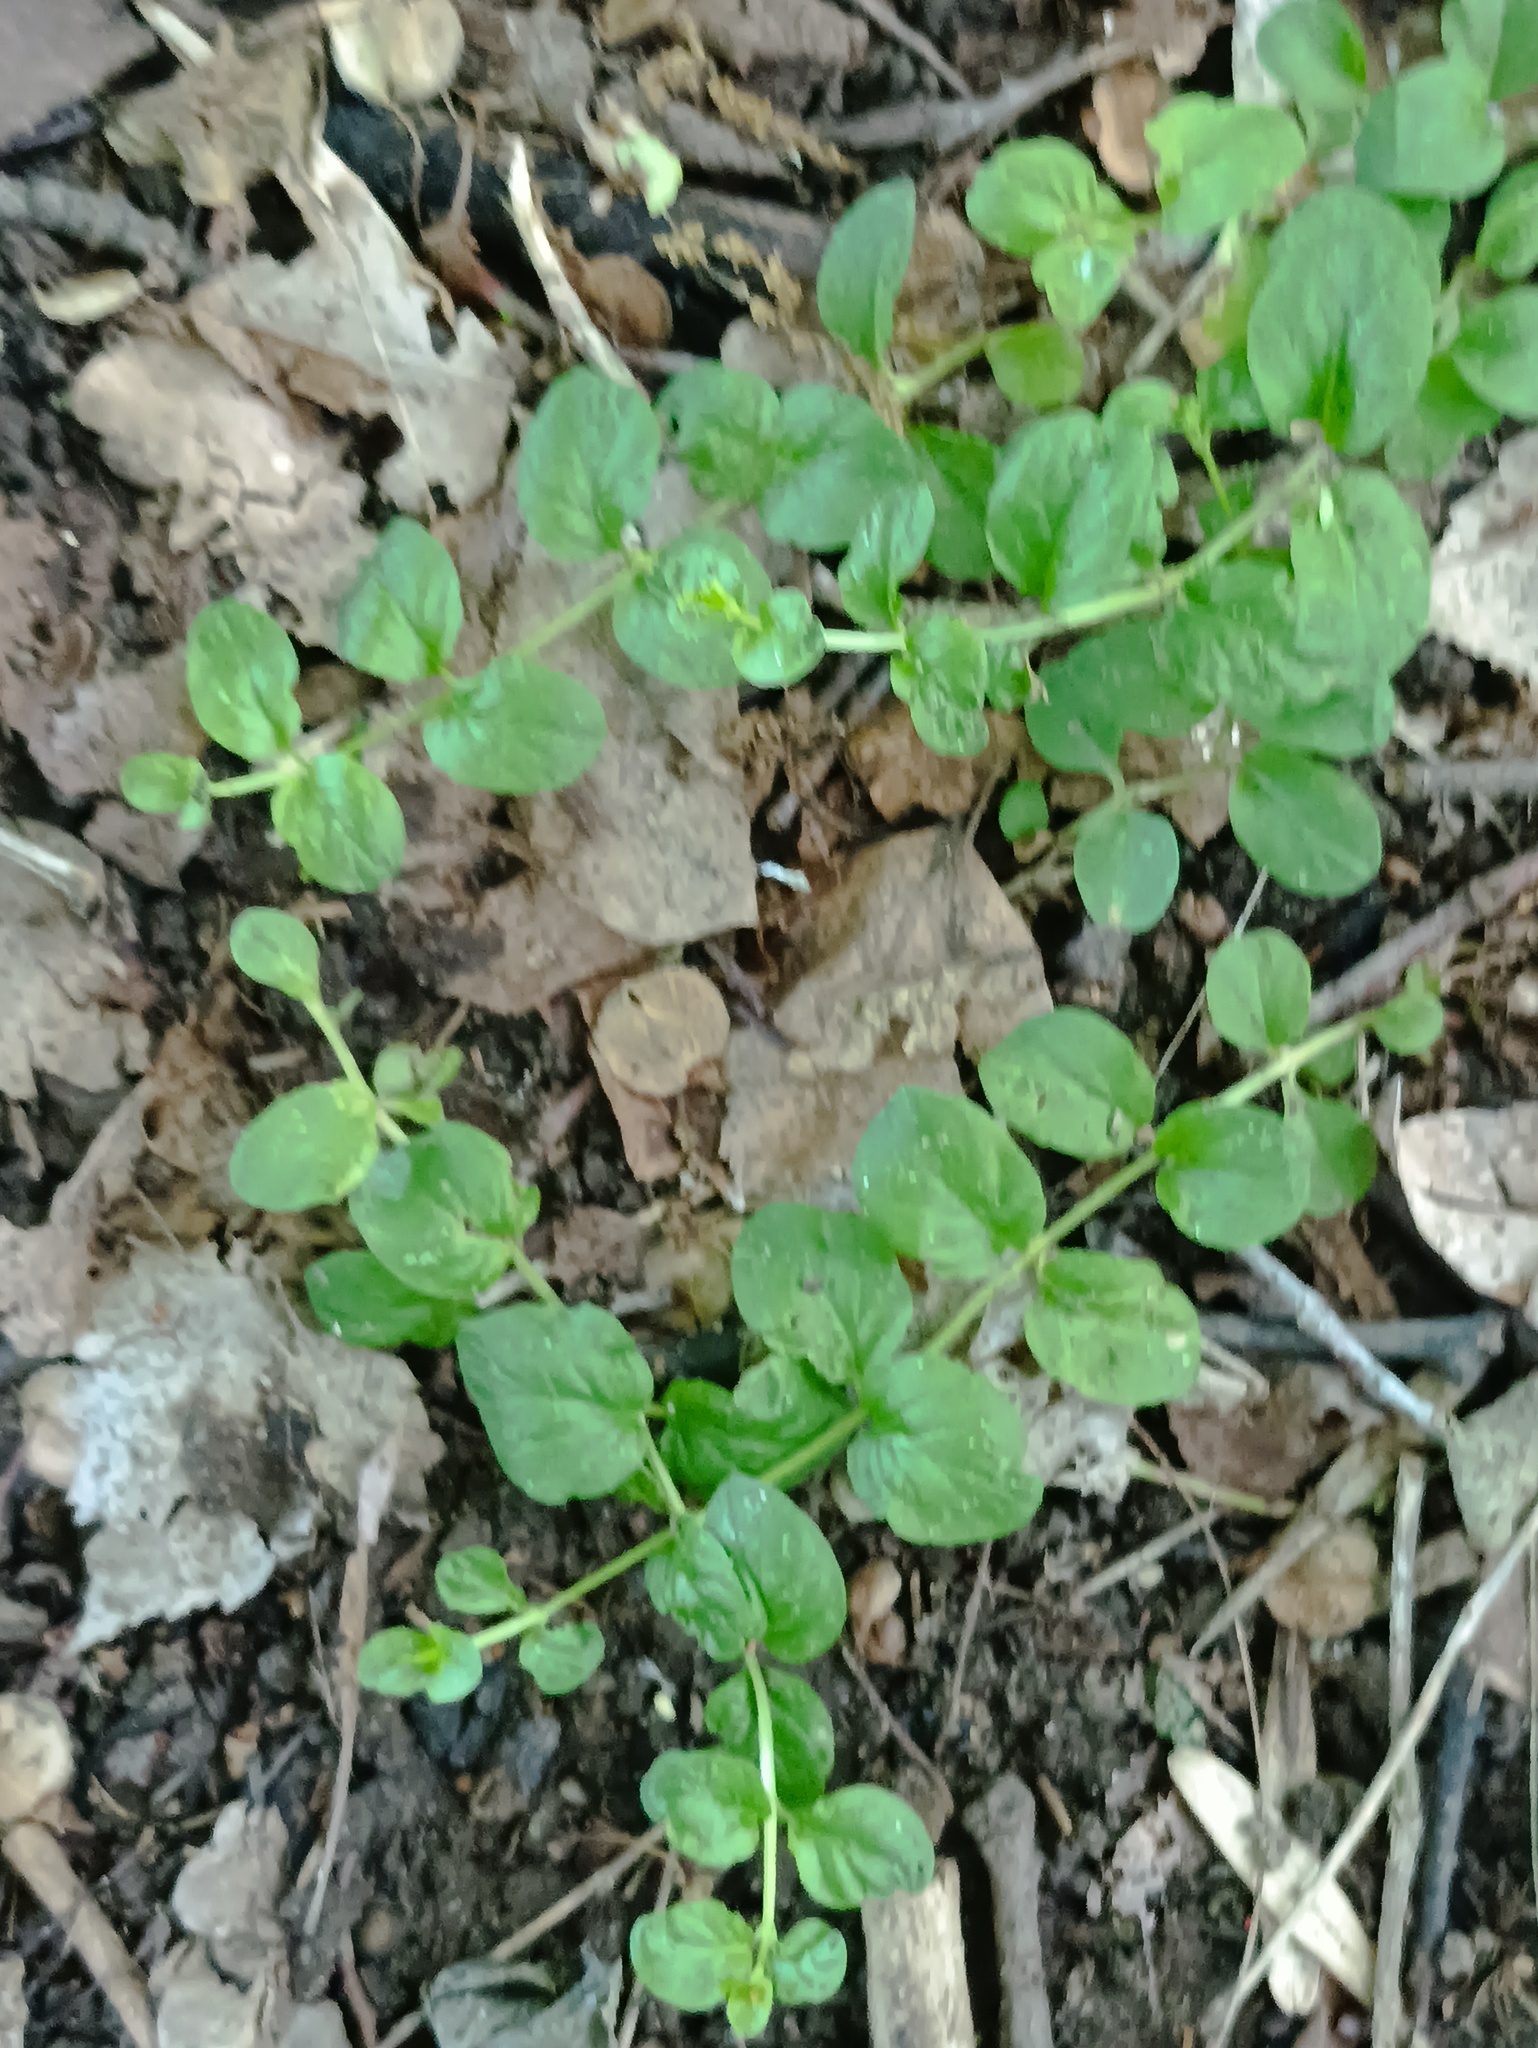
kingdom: Plantae
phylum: Tracheophyta
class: Magnoliopsida
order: Ericales
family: Primulaceae
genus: Lysimachia
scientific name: Lysimachia nummularia
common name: Moneywort
